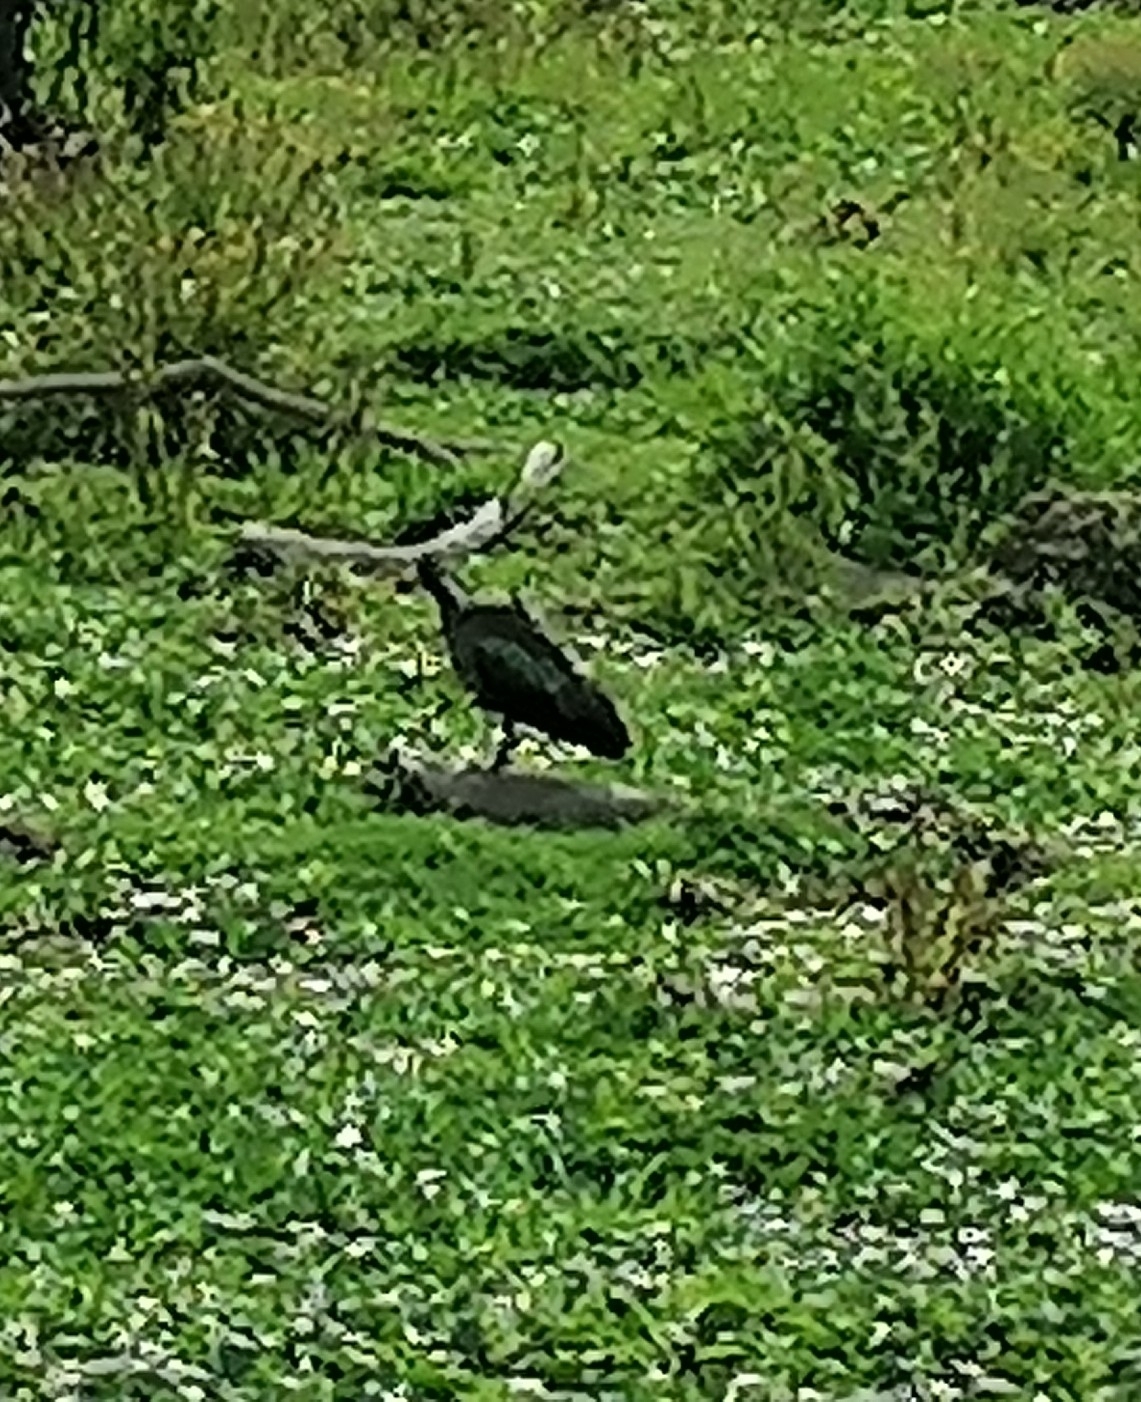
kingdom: Animalia
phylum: Chordata
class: Aves
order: Pelecaniformes
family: Threskiornithidae
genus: Bostrychia
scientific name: Bostrychia hagedash
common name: Hadada ibis
